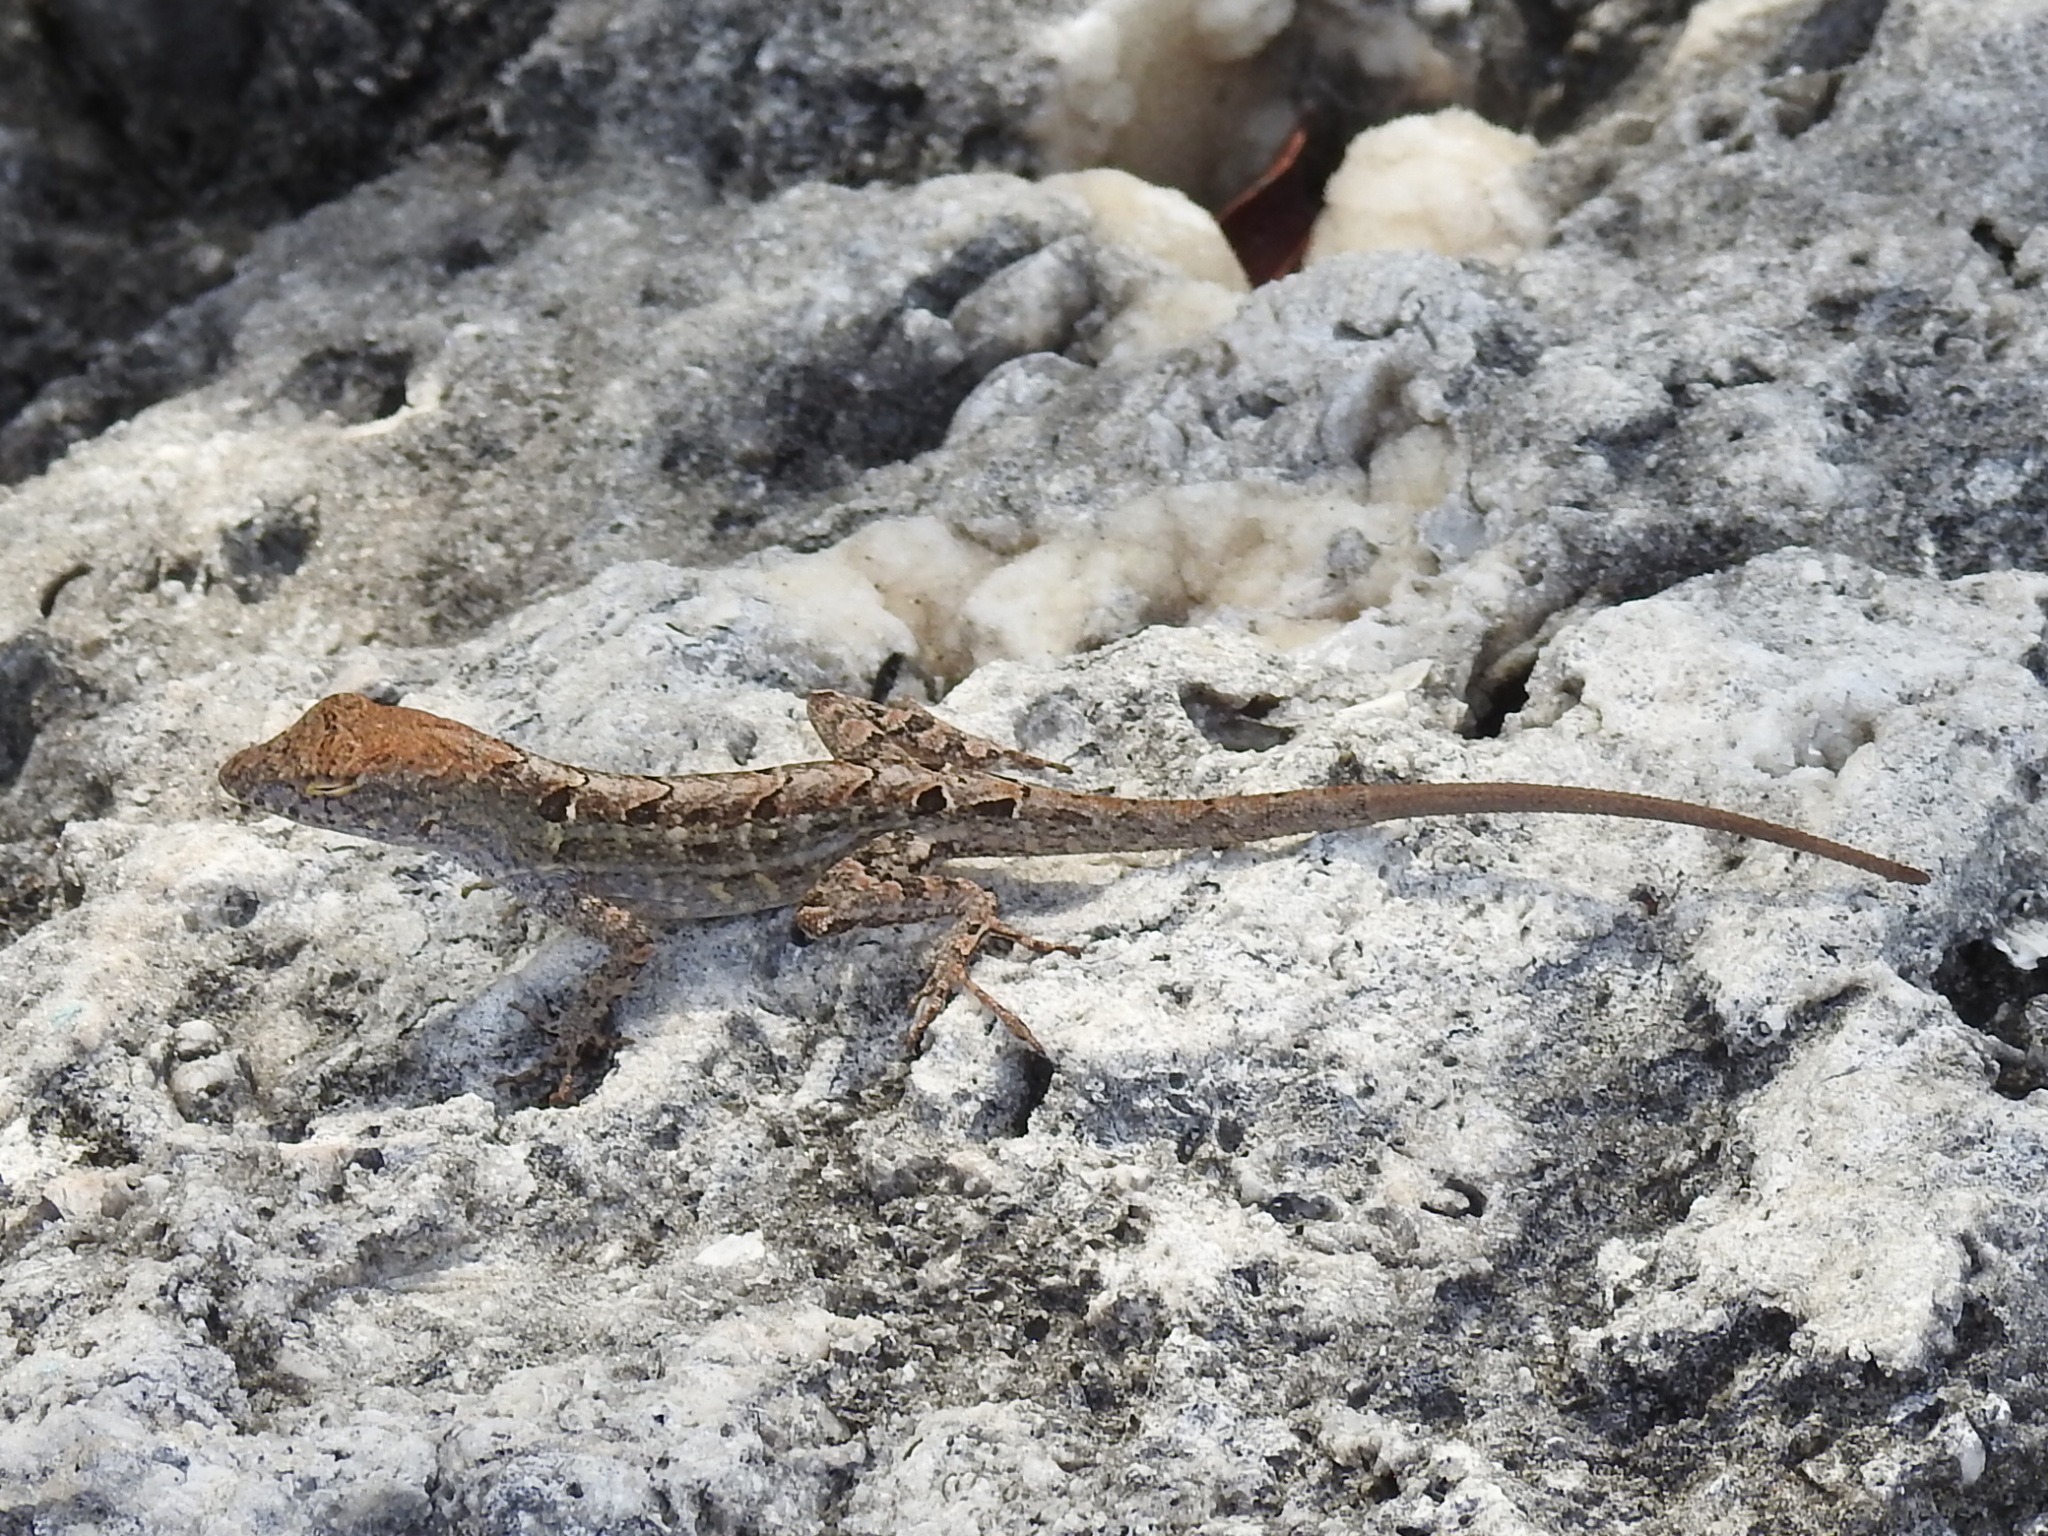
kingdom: Animalia
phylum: Chordata
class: Squamata
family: Dactyloidae
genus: Anolis
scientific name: Anolis sagrei
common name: Brown anole
